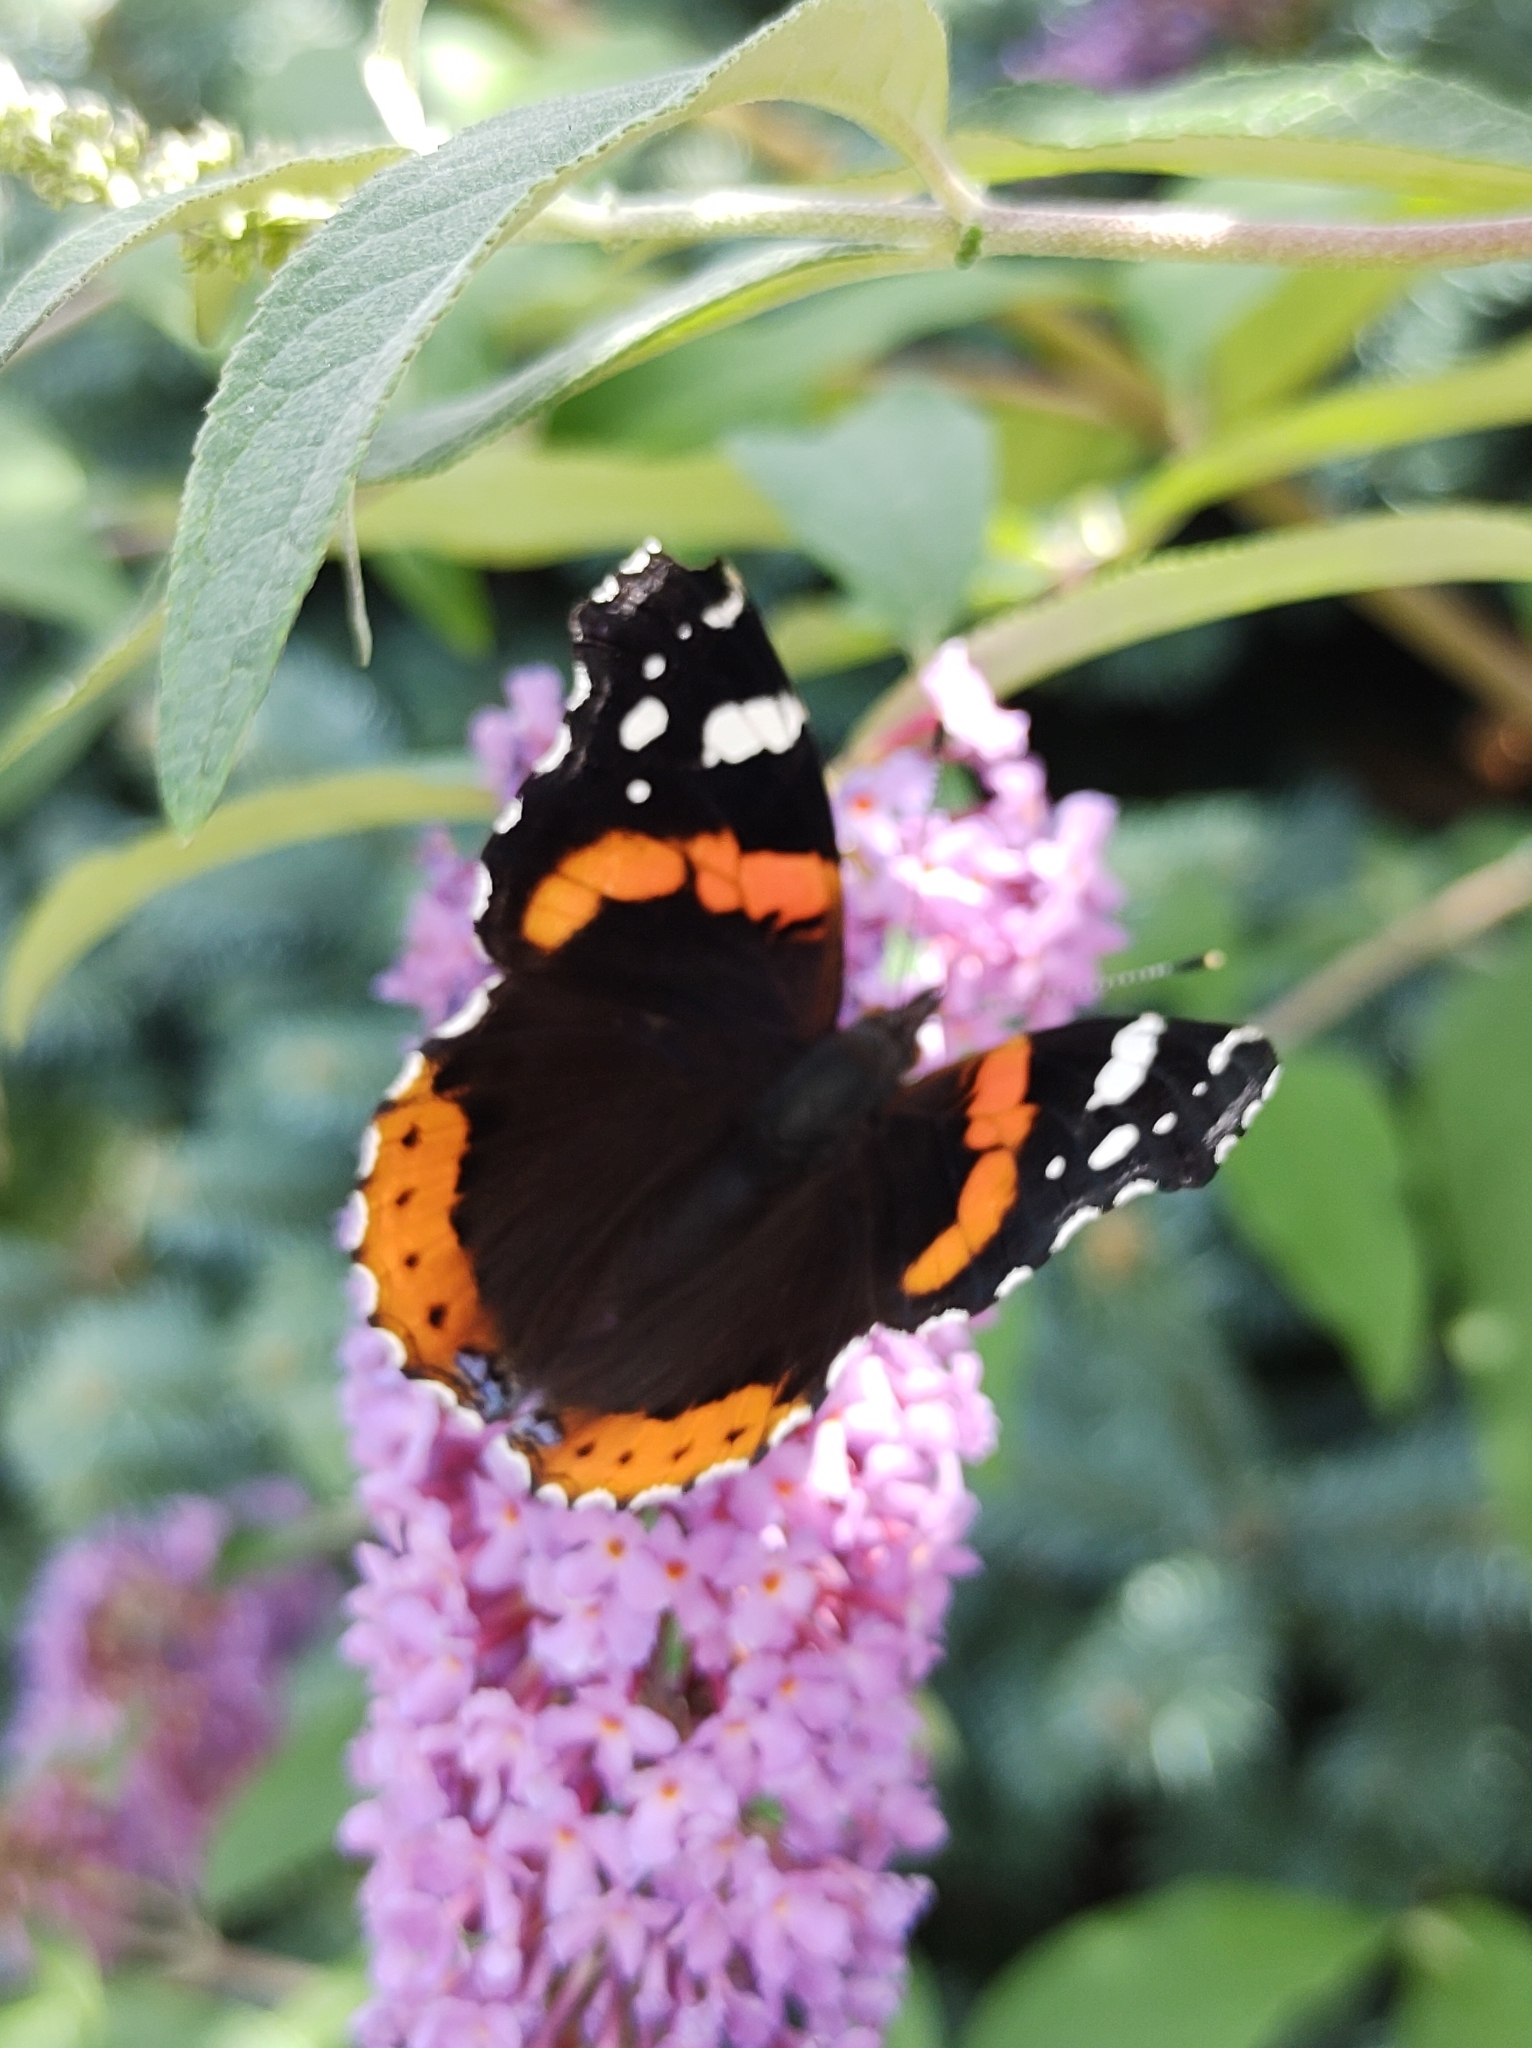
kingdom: Animalia
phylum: Arthropoda
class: Insecta
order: Lepidoptera
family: Nymphalidae
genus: Vanessa
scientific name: Vanessa atalanta
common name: Red admiral
